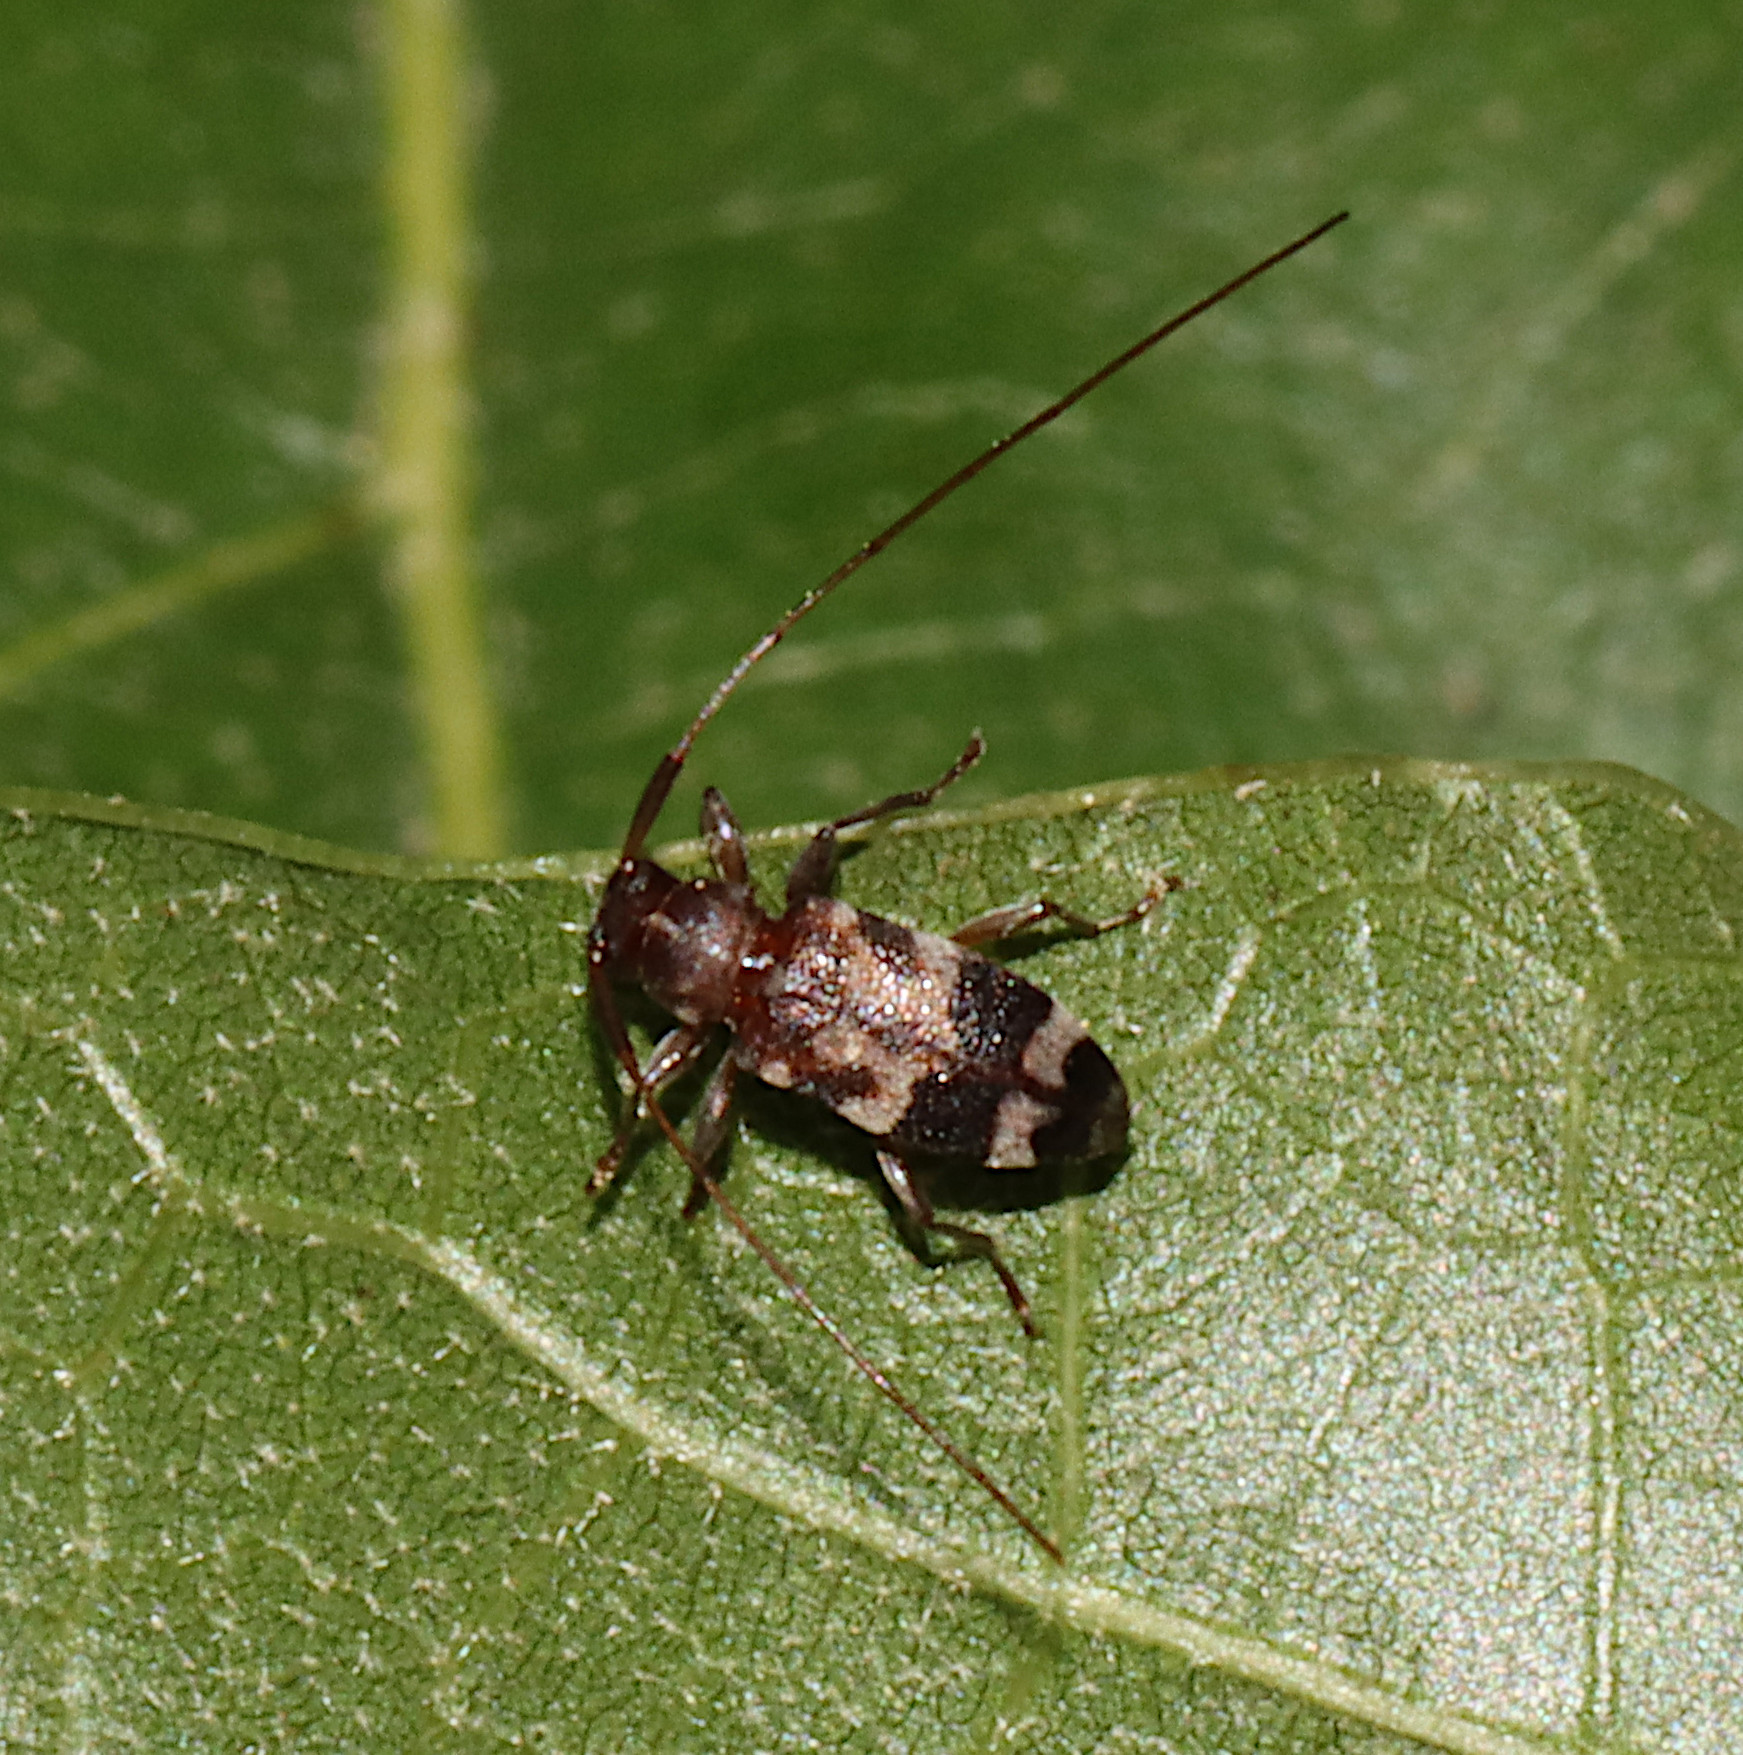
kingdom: Animalia
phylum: Arthropoda
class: Insecta
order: Coleoptera
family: Cerambycidae
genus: Urgleptes
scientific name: Urgleptes facetus
